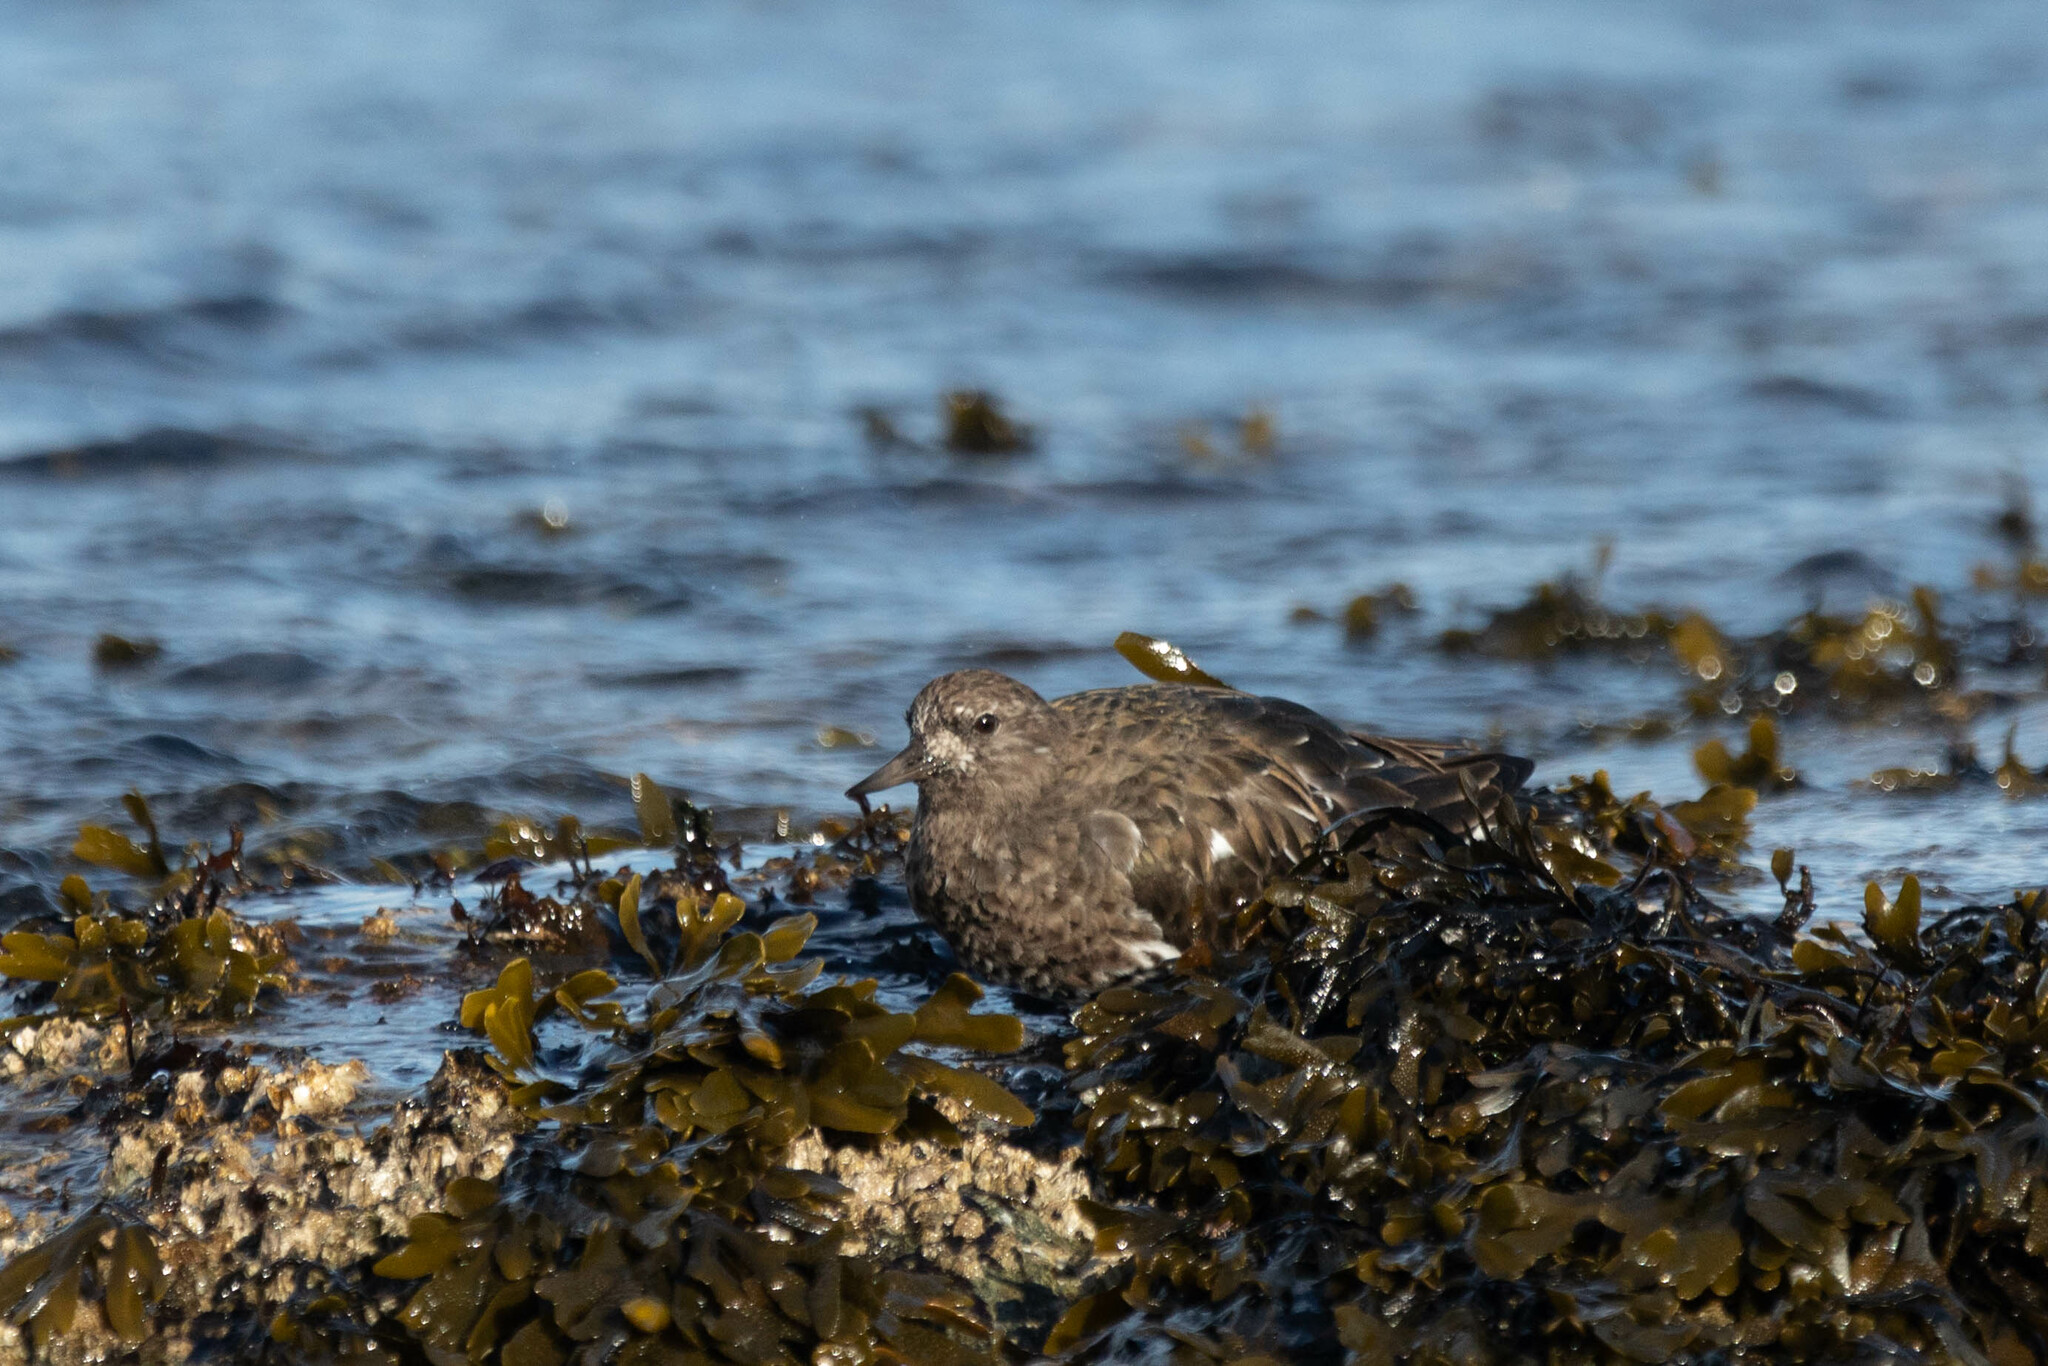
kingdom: Animalia
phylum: Chordata
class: Aves
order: Charadriiformes
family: Scolopacidae
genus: Arenaria
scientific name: Arenaria melanocephala
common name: Black turnstone
